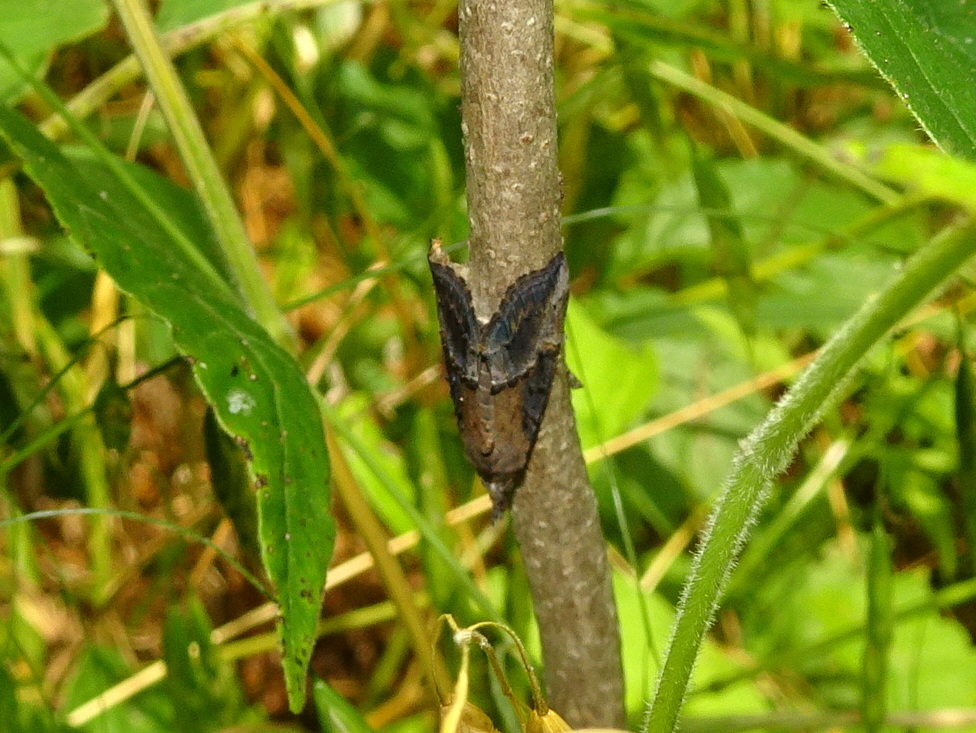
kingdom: Animalia
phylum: Arthropoda
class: Insecta
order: Lepidoptera
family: Erebidae
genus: Hypena
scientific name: Hypena scabra
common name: Green cloverworm
